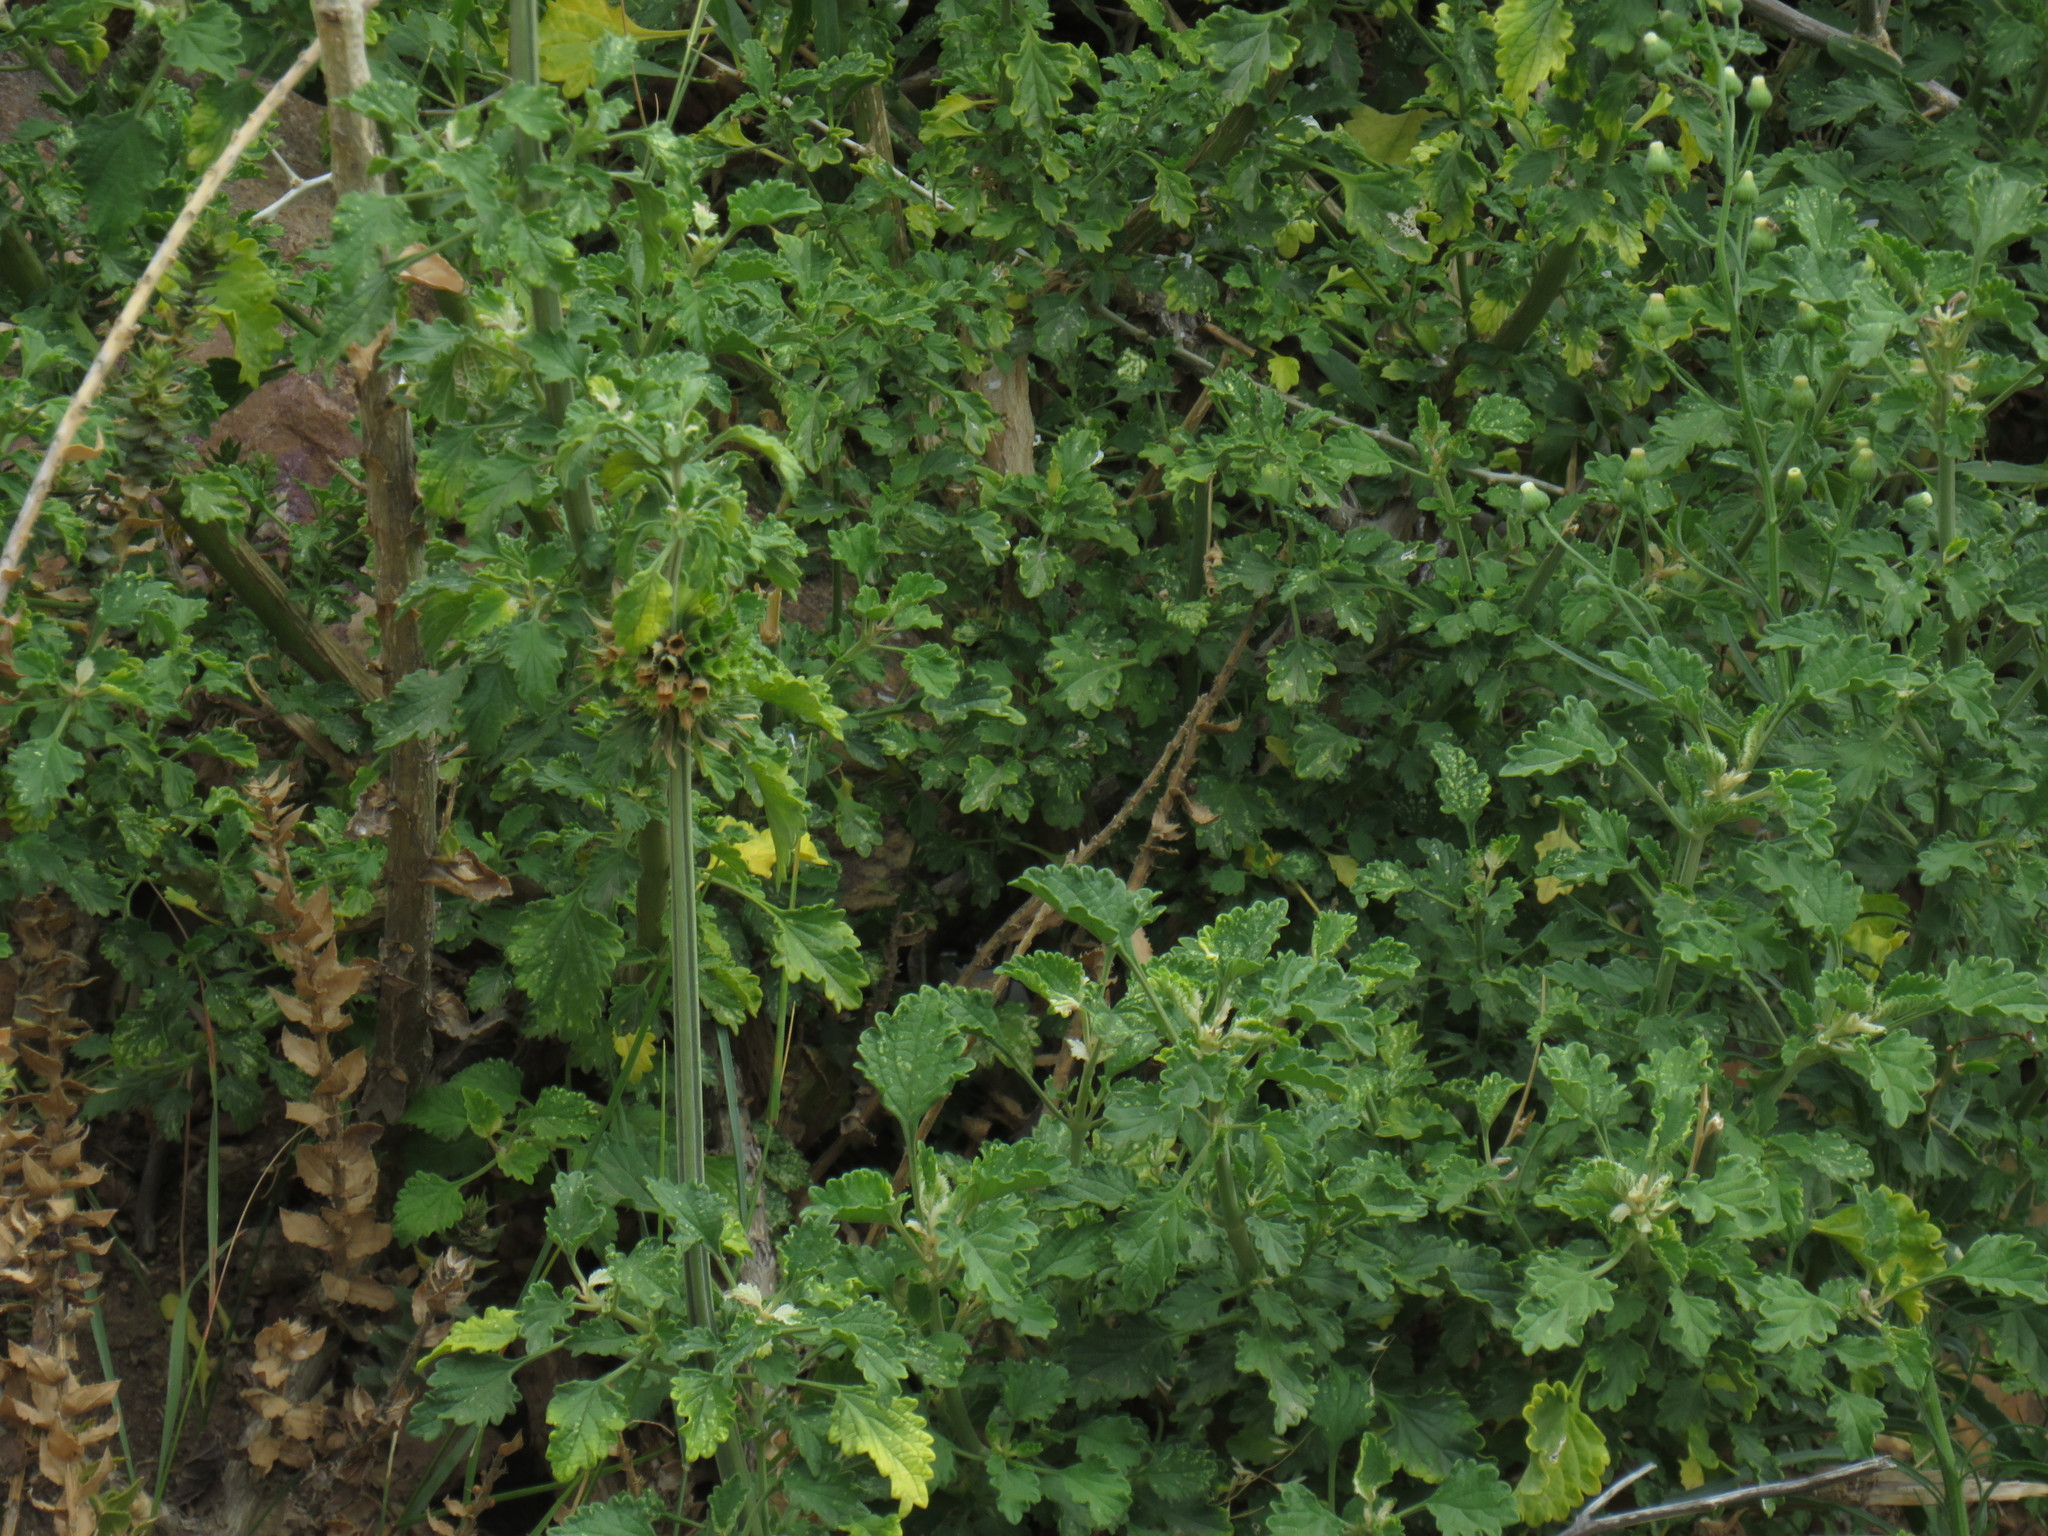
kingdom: Plantae
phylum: Tracheophyta
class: Magnoliopsida
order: Lamiales
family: Lamiaceae
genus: Leonotis
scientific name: Leonotis ocymifolia
